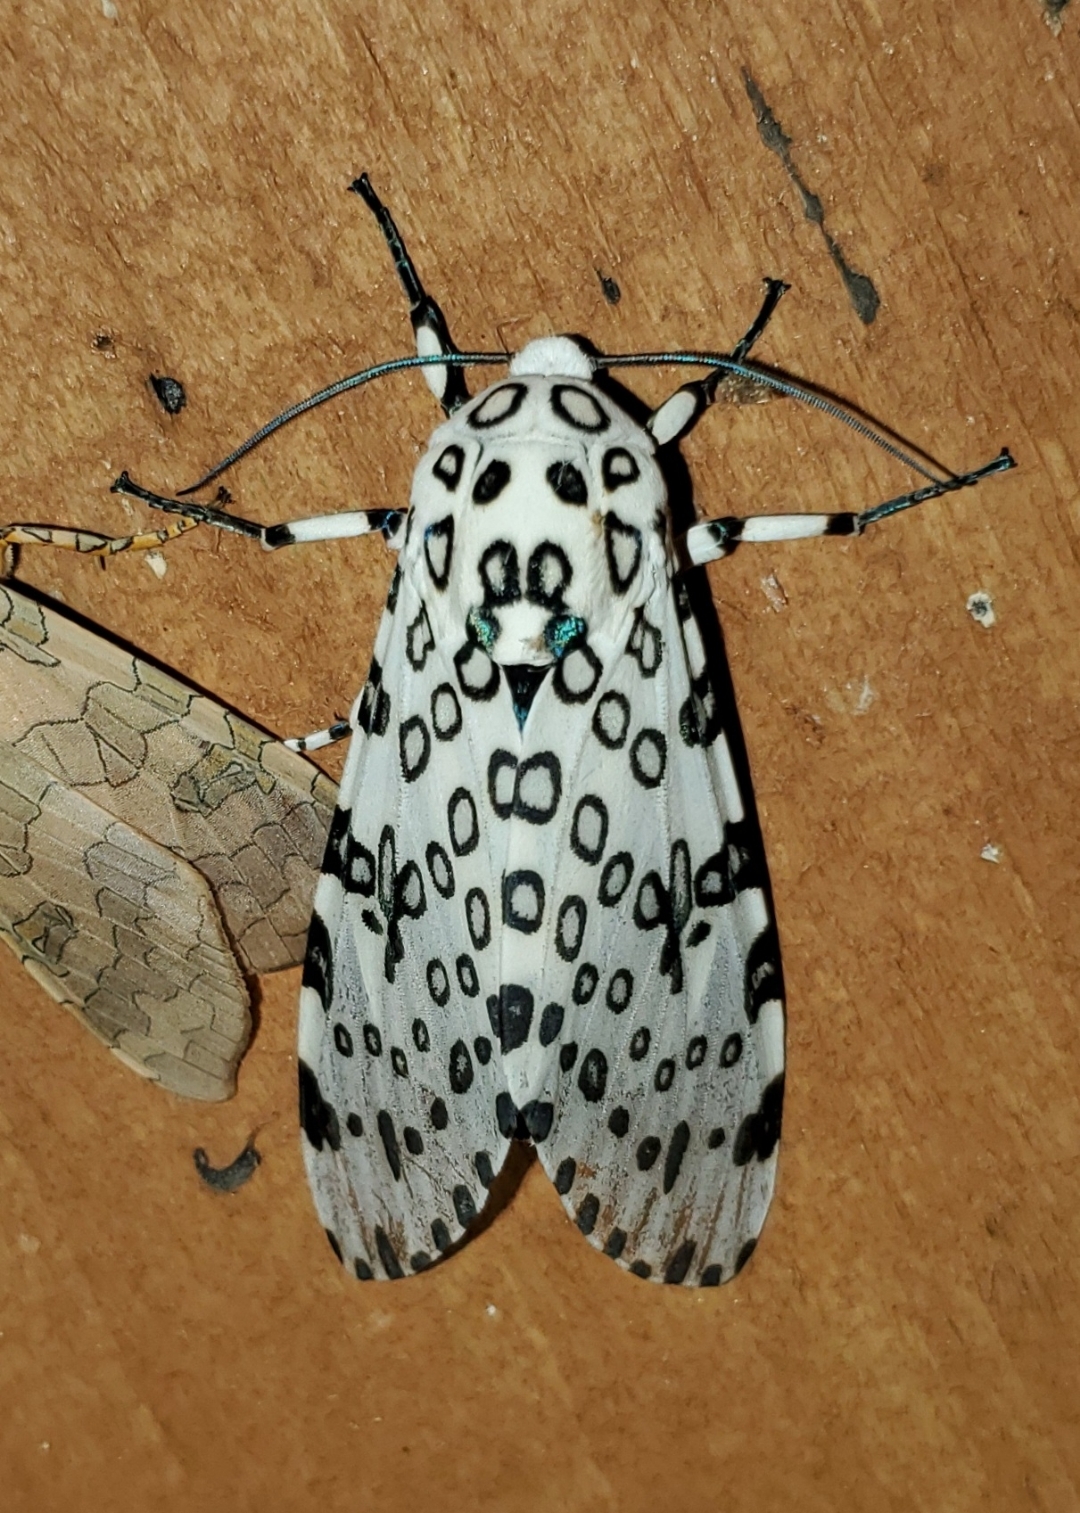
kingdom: Animalia
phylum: Arthropoda
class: Insecta
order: Lepidoptera
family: Erebidae
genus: Hypercompe
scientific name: Hypercompe scribonia
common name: Giant leopard moth
